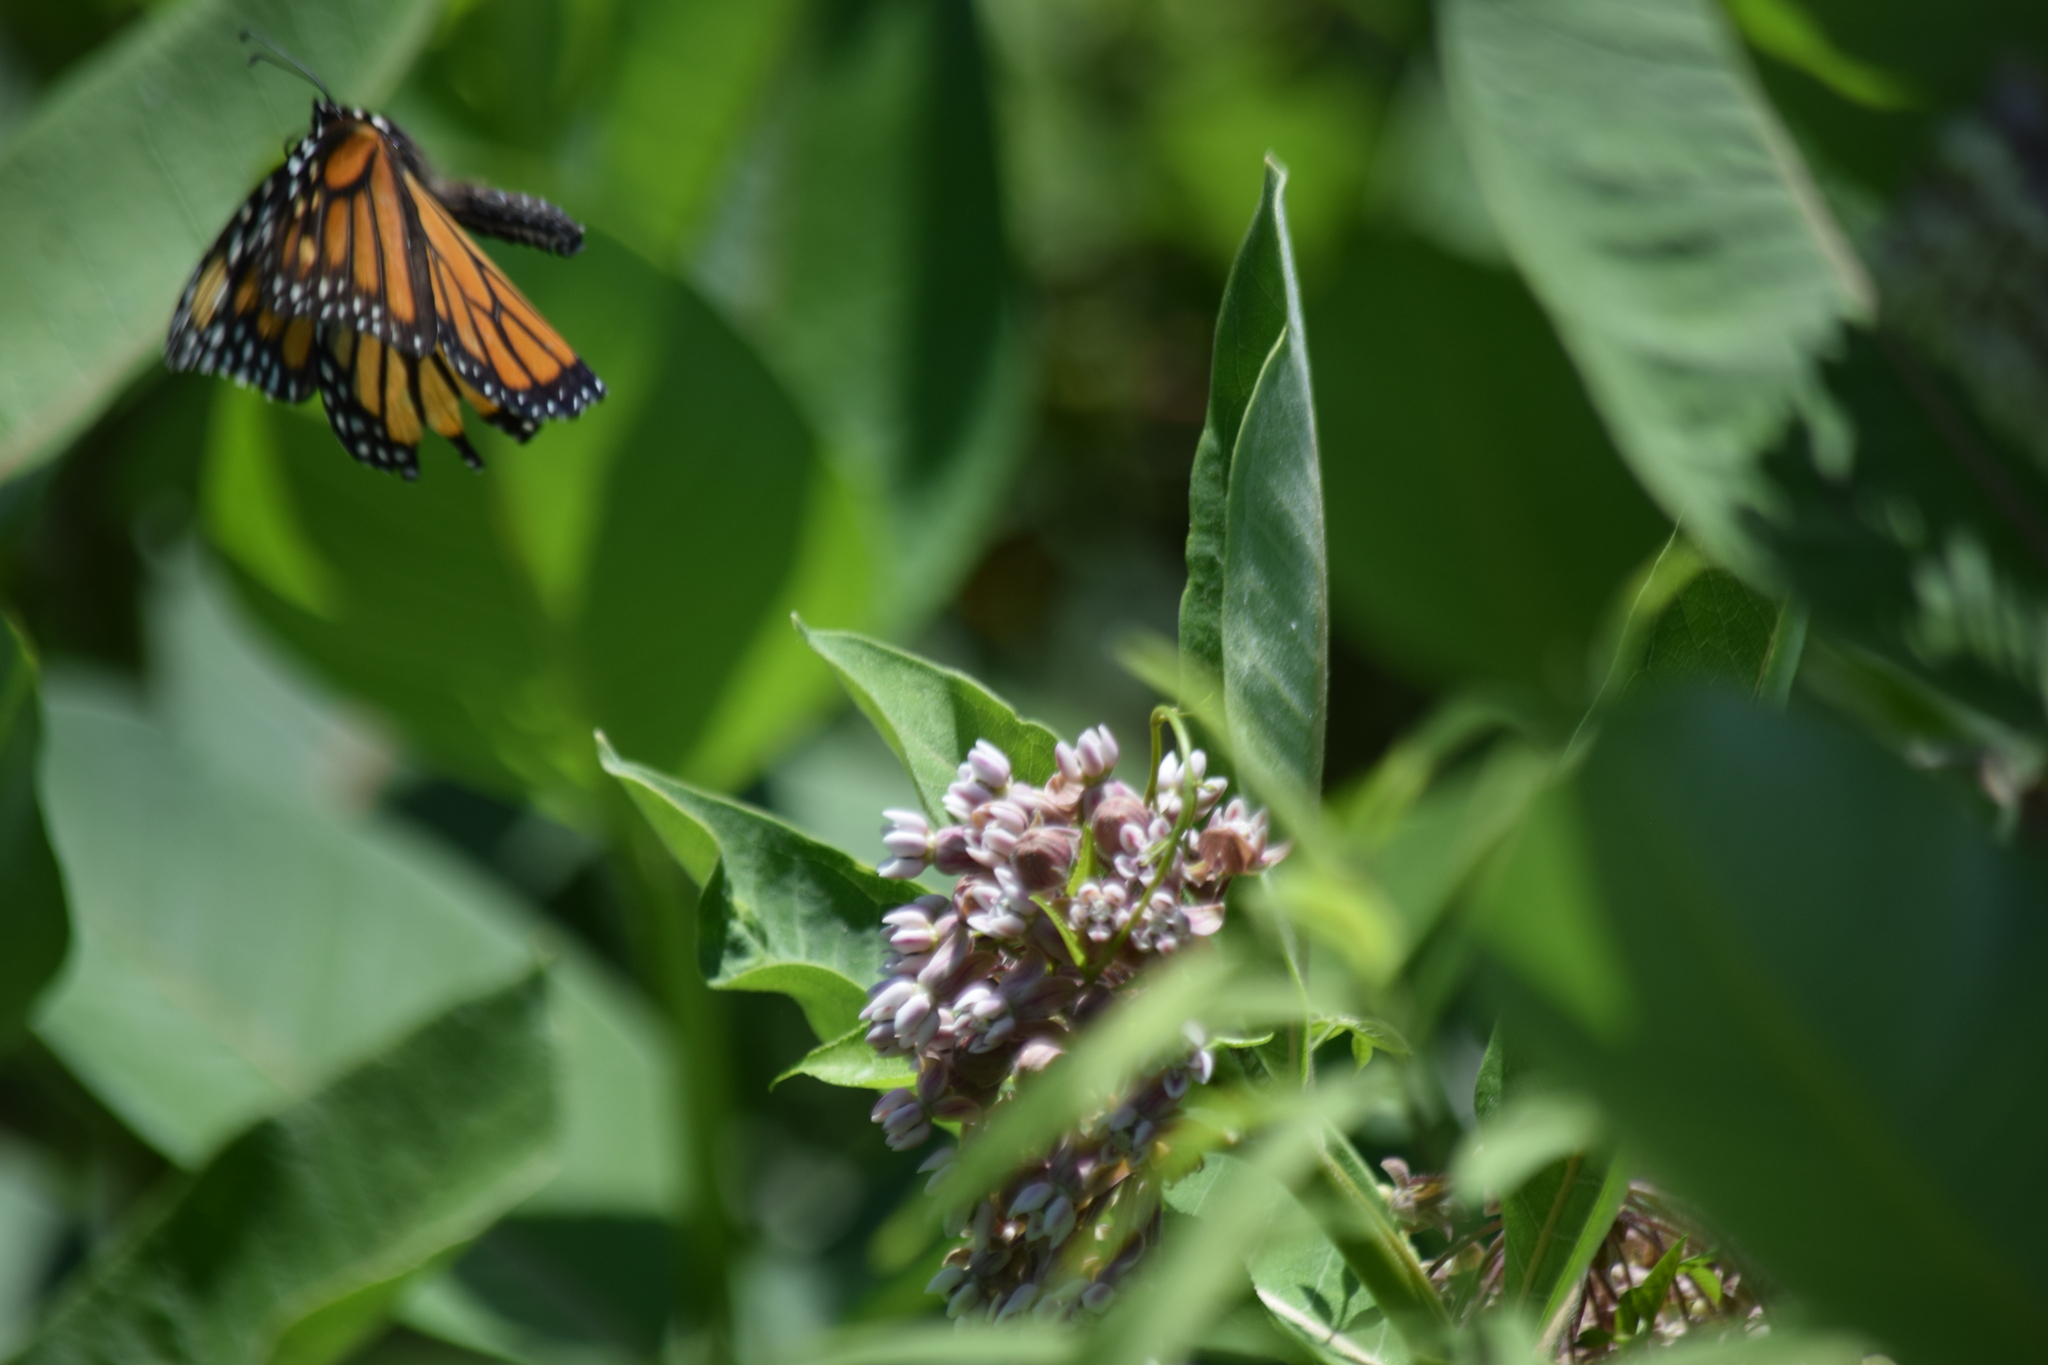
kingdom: Animalia
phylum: Arthropoda
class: Insecta
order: Lepidoptera
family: Nymphalidae
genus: Danaus
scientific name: Danaus plexippus
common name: Monarch
